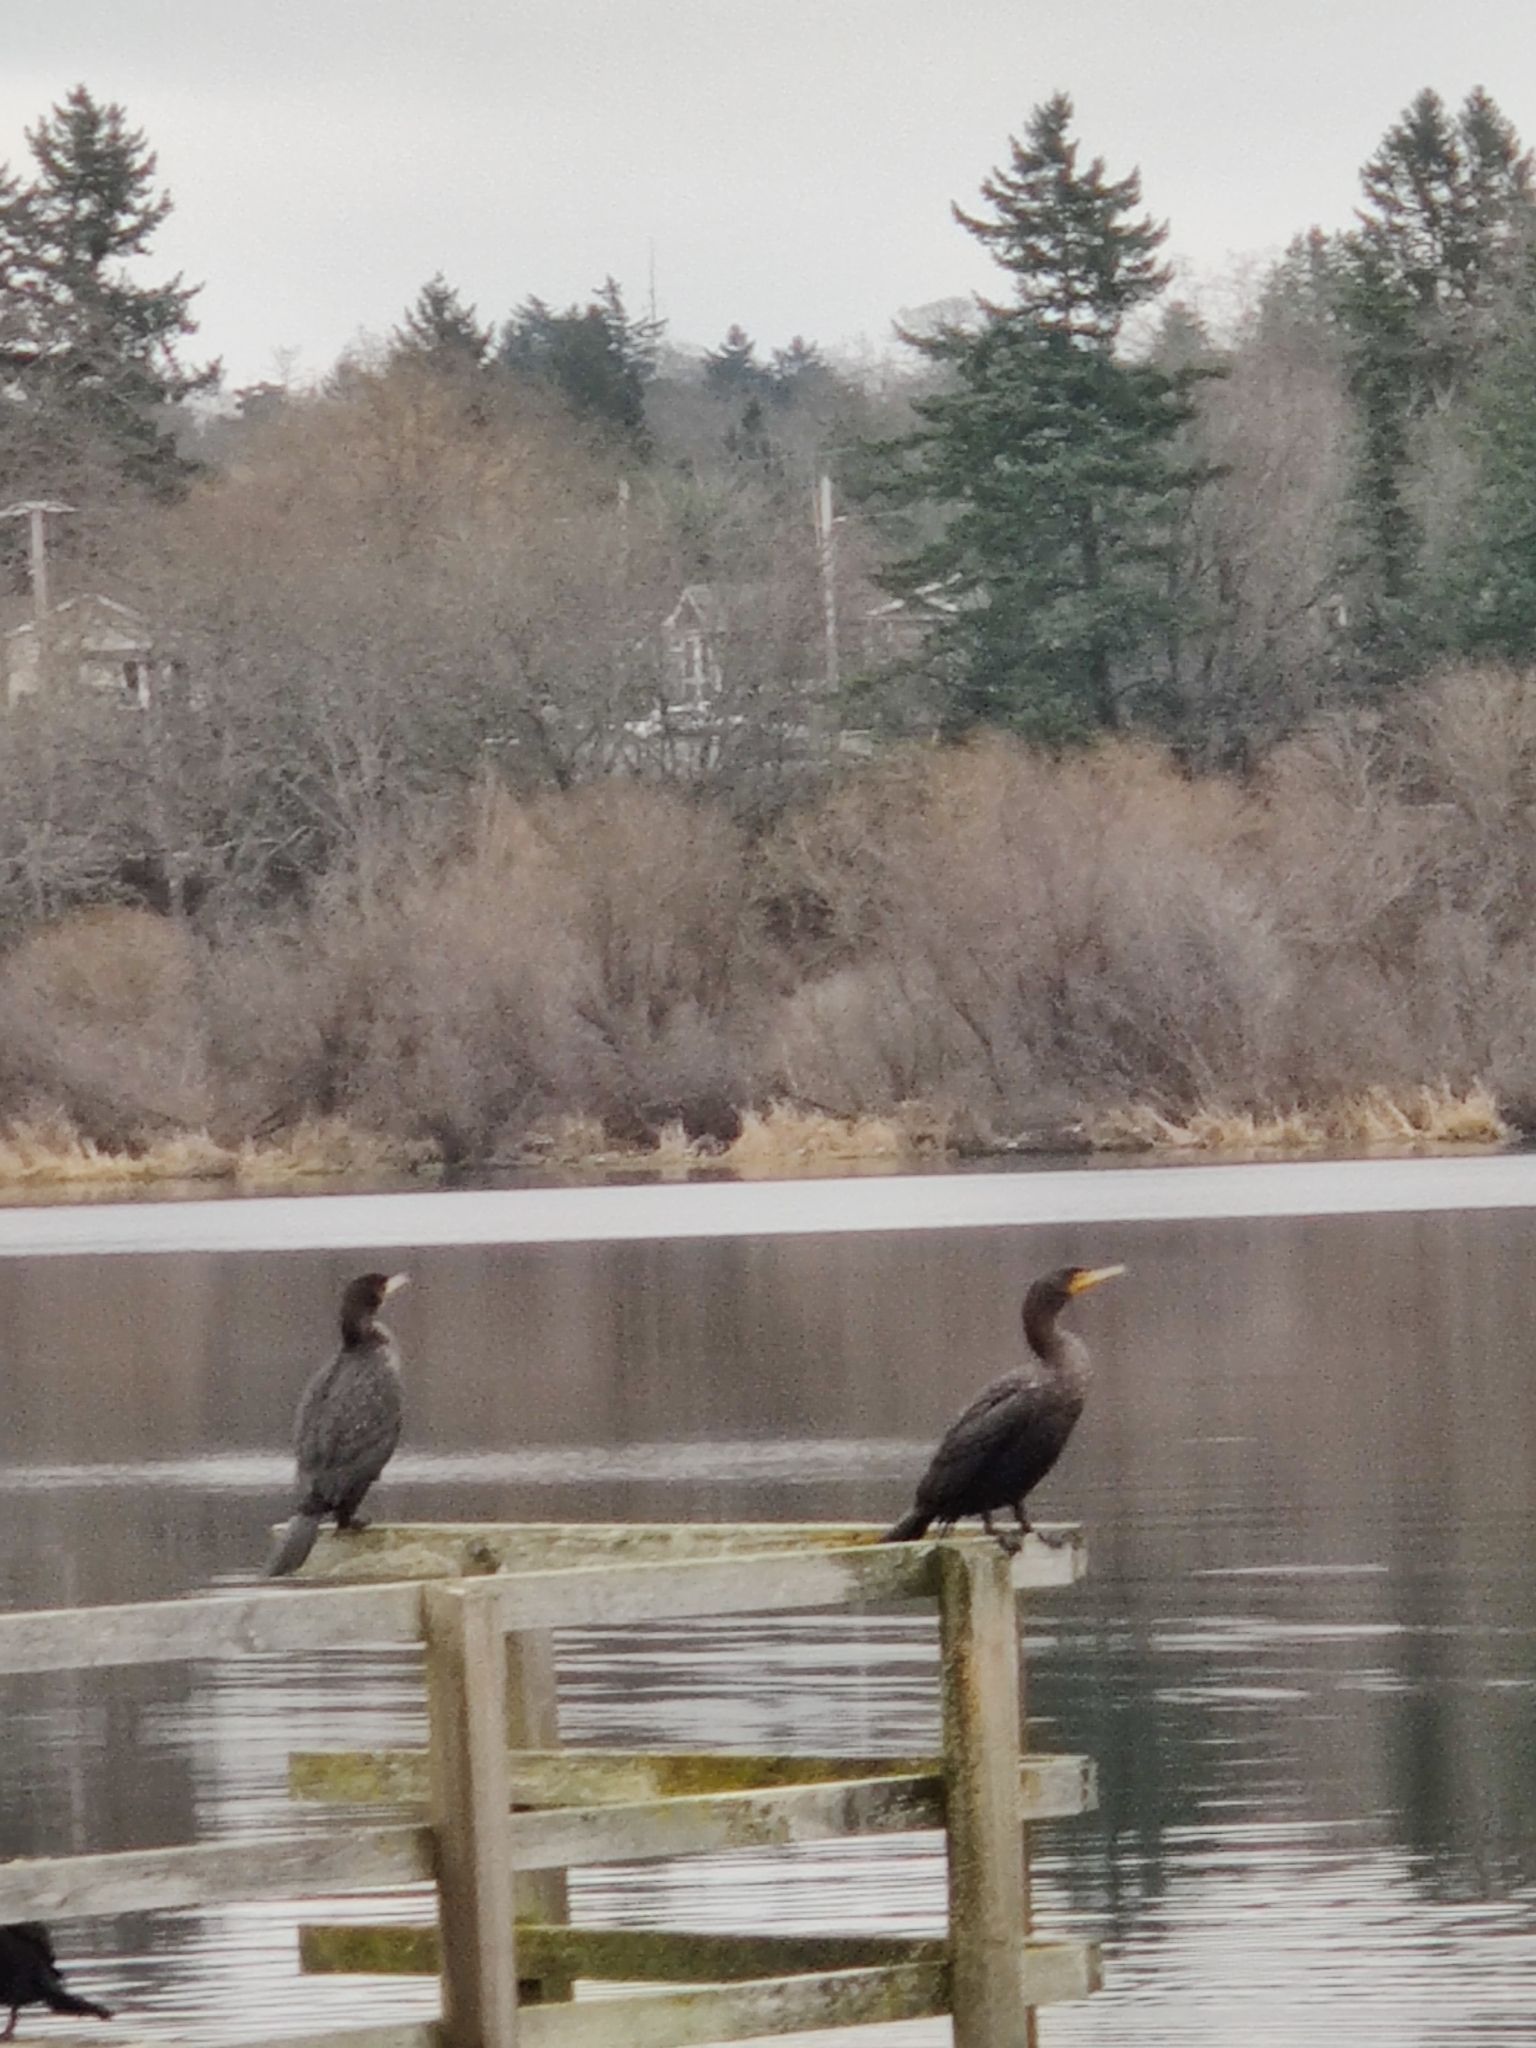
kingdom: Animalia
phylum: Chordata
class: Aves
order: Suliformes
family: Phalacrocoracidae
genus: Phalacrocorax
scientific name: Phalacrocorax auritus
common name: Double-crested cormorant
